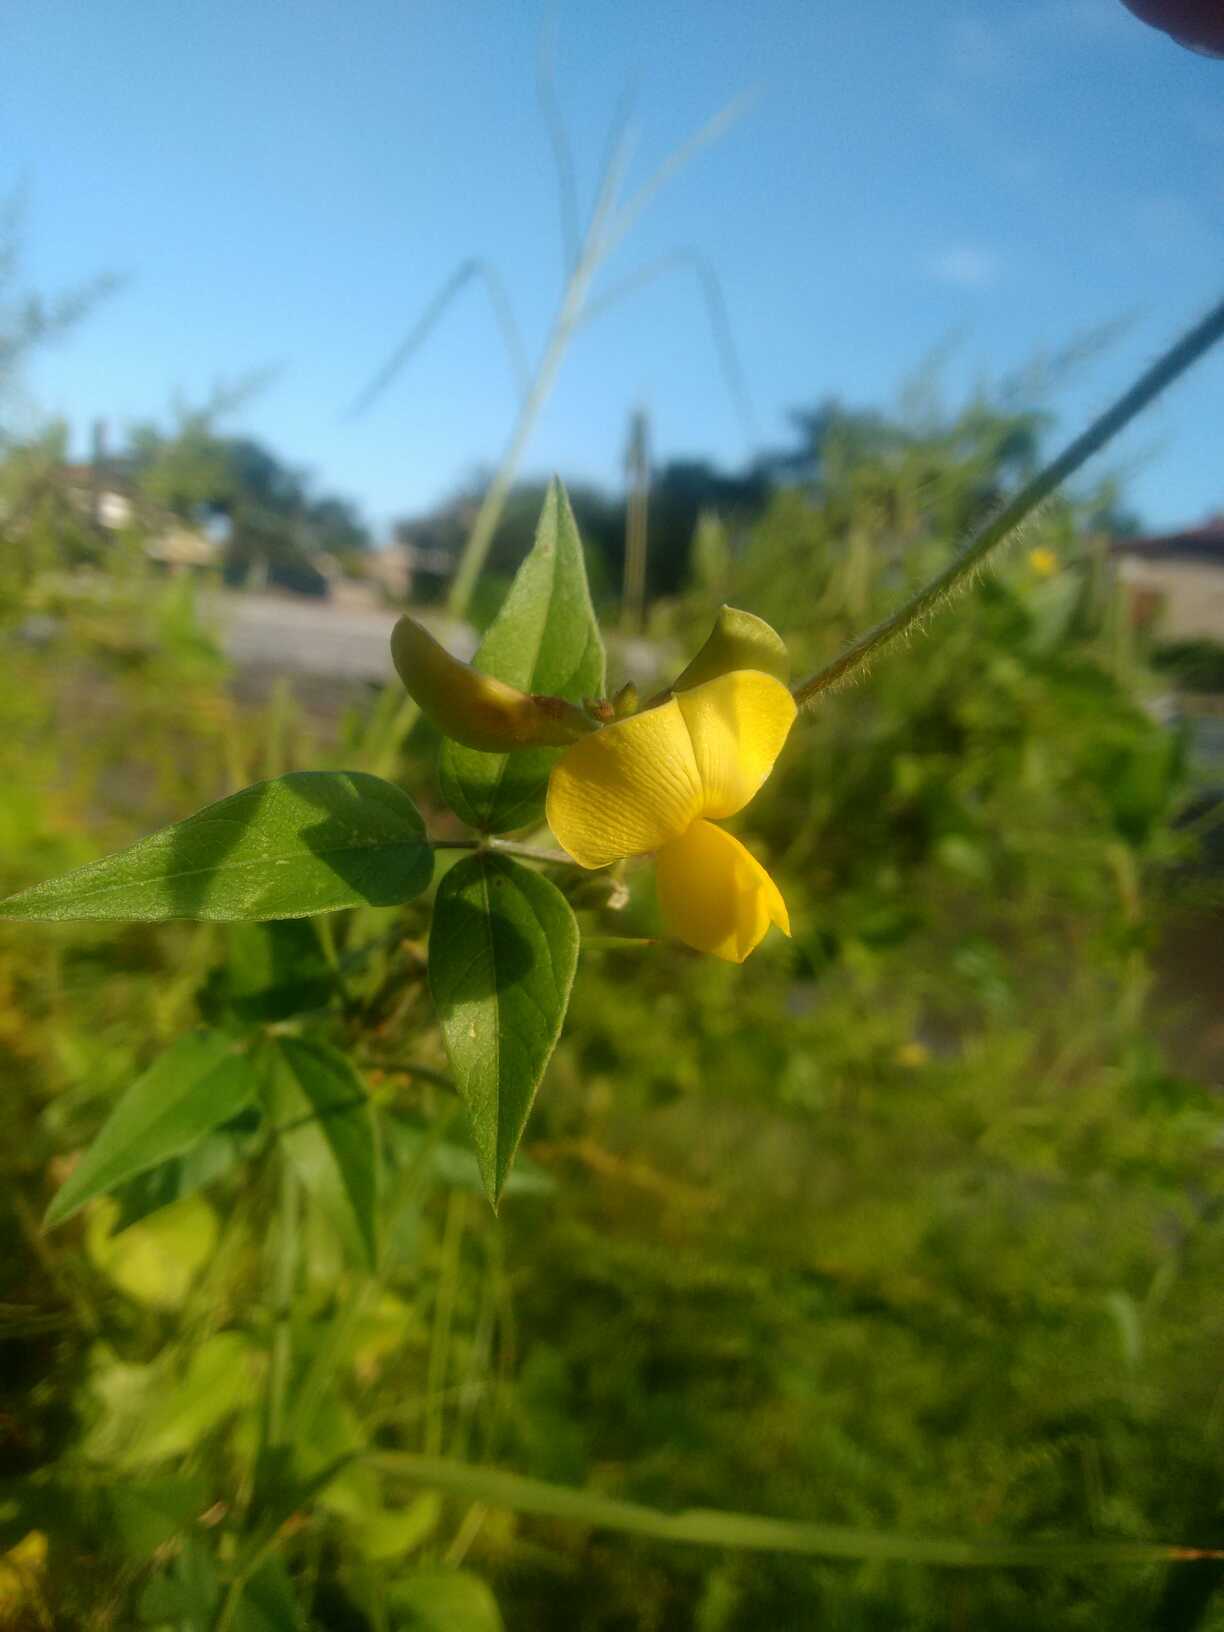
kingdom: Plantae
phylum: Tracheophyta
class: Magnoliopsida
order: Fabales
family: Fabaceae
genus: Vigna
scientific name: Vigna luteola
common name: Hairypod cowpea
